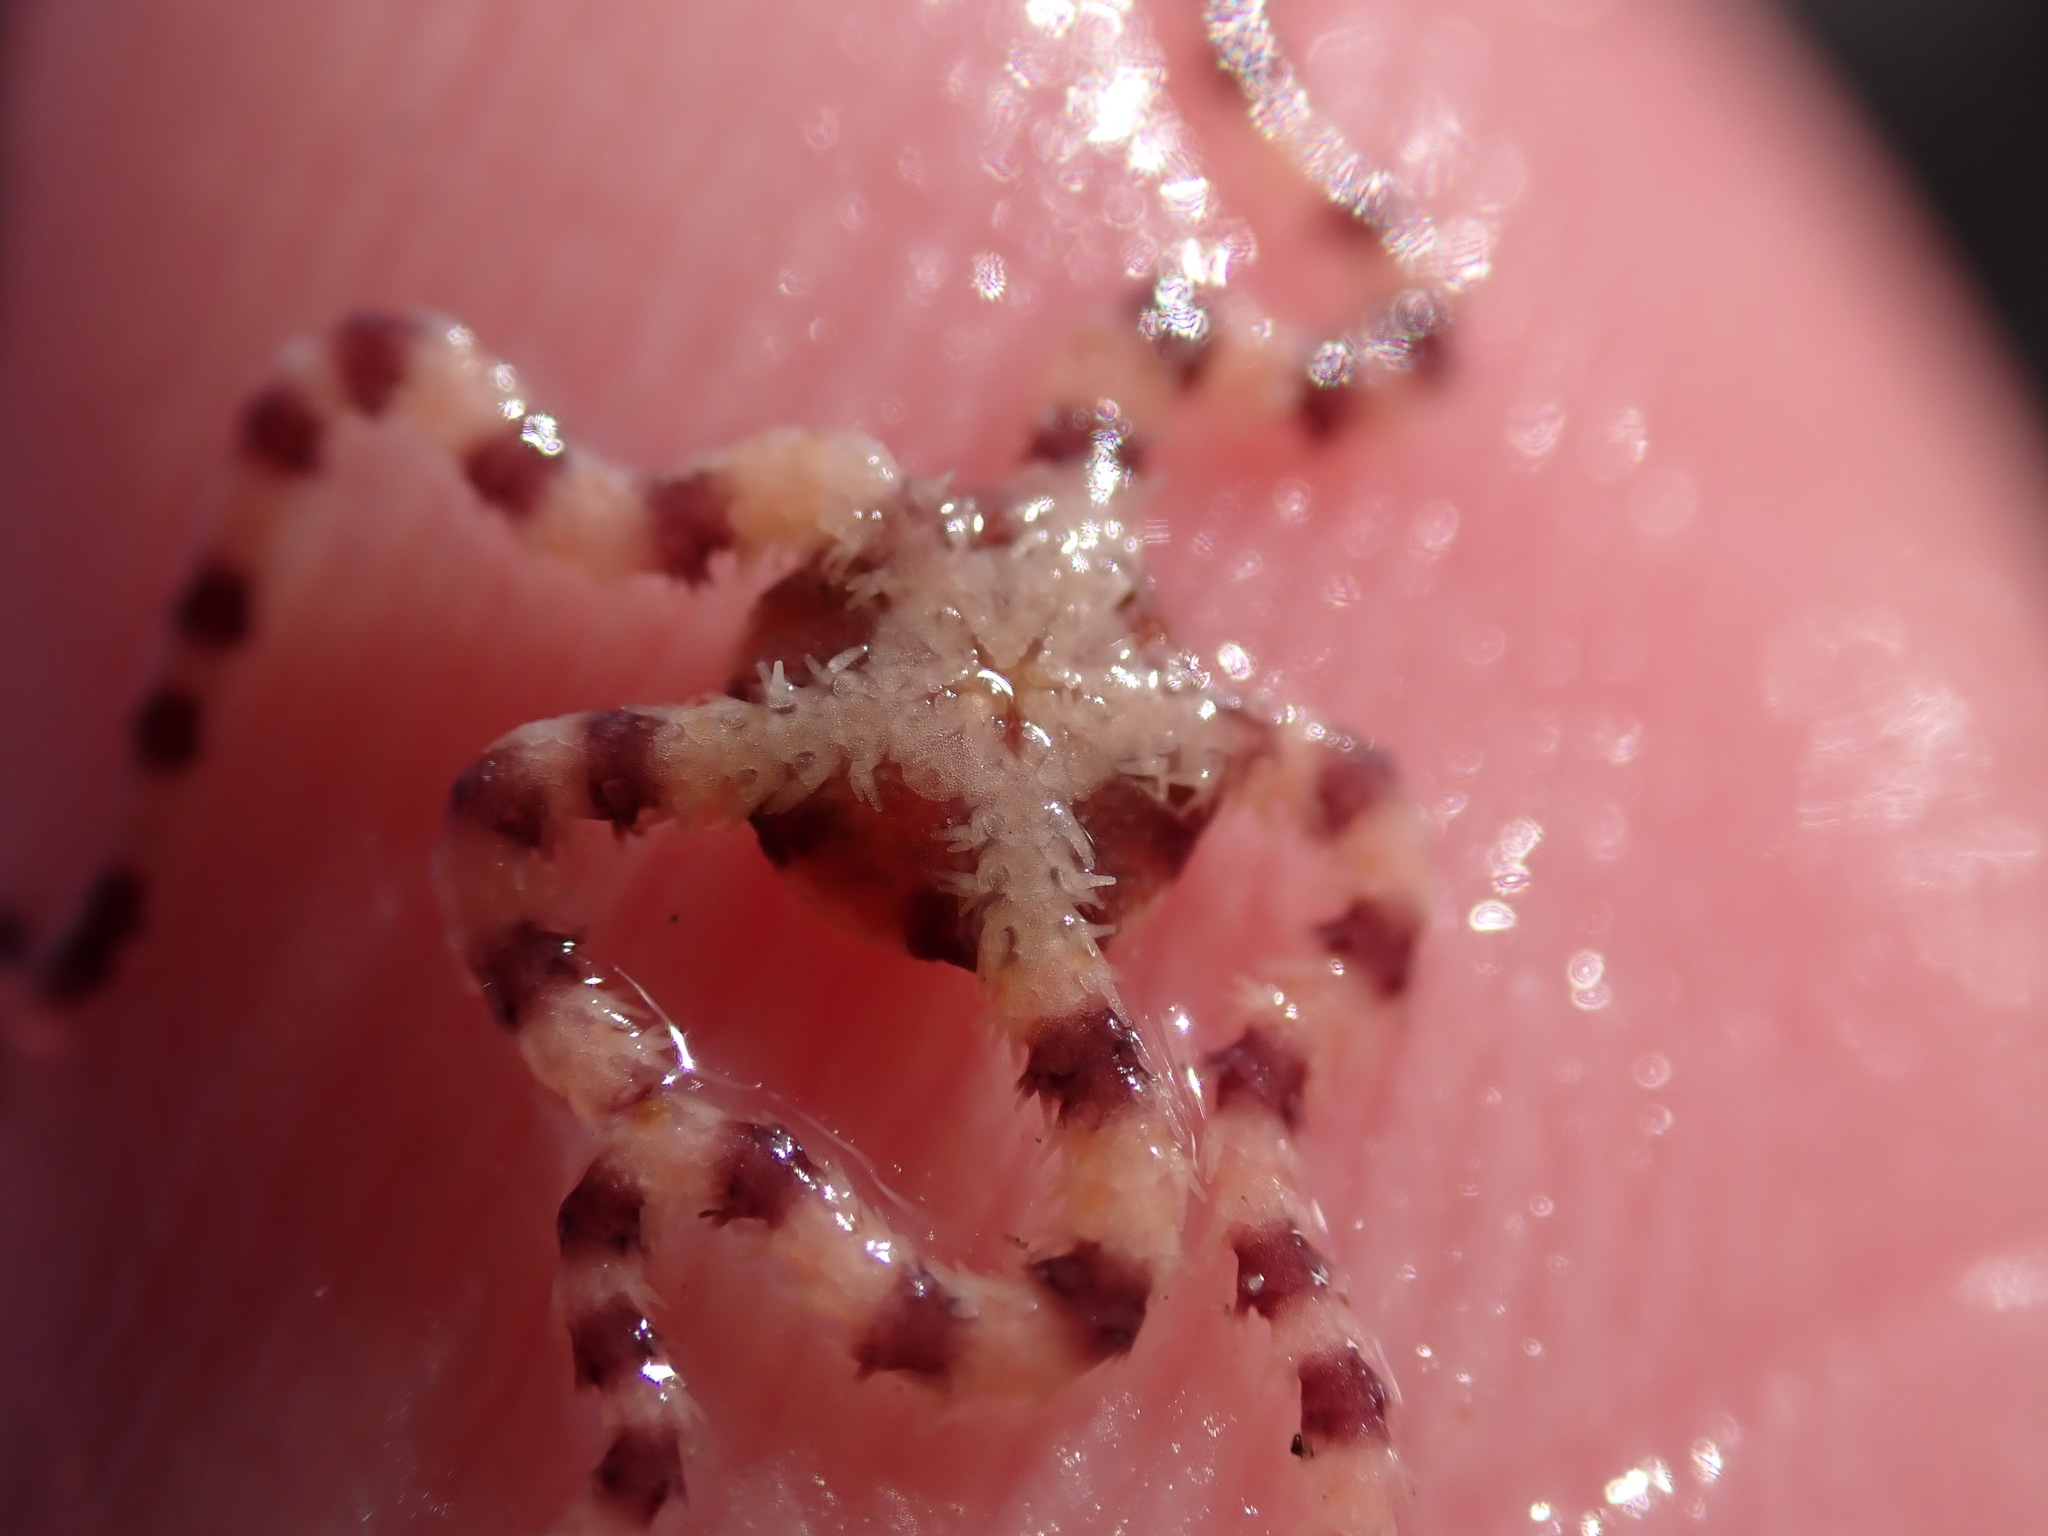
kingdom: Animalia
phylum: Echinodermata
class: Ophiuroidea
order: Amphilepidida
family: Ophionereididae
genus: Ophionereis
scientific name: Ophionereis fasciata
